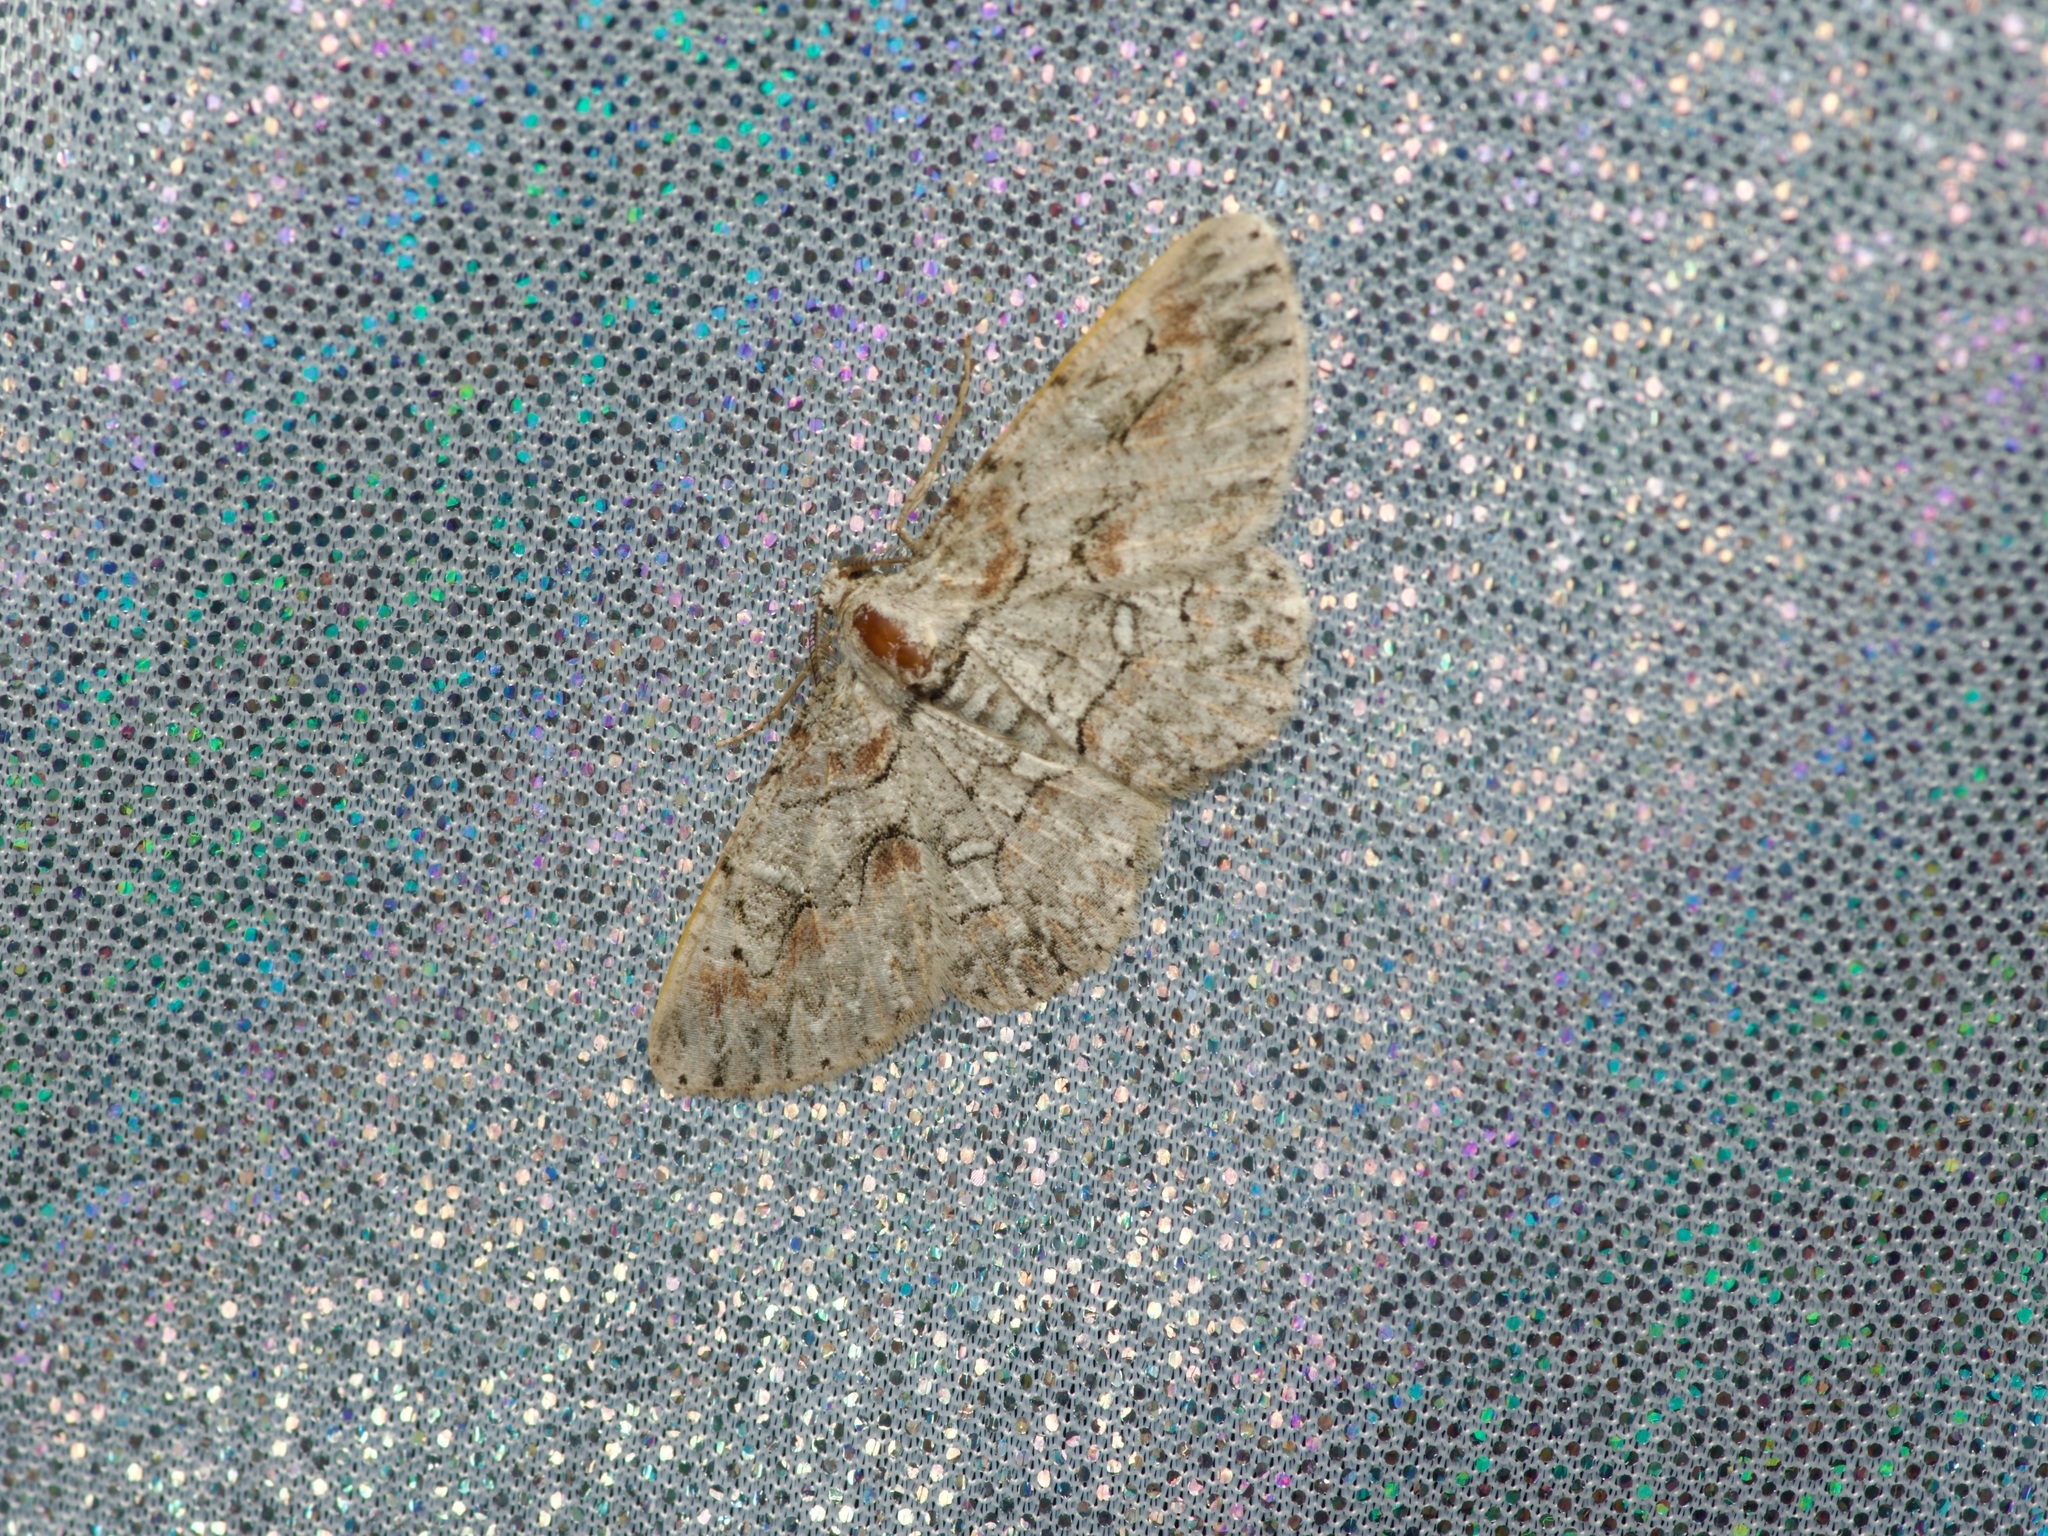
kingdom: Animalia
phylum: Arthropoda
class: Insecta
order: Lepidoptera
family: Geometridae
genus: Iridopsis
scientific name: Iridopsis defectaria
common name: Brown-shaded gray
